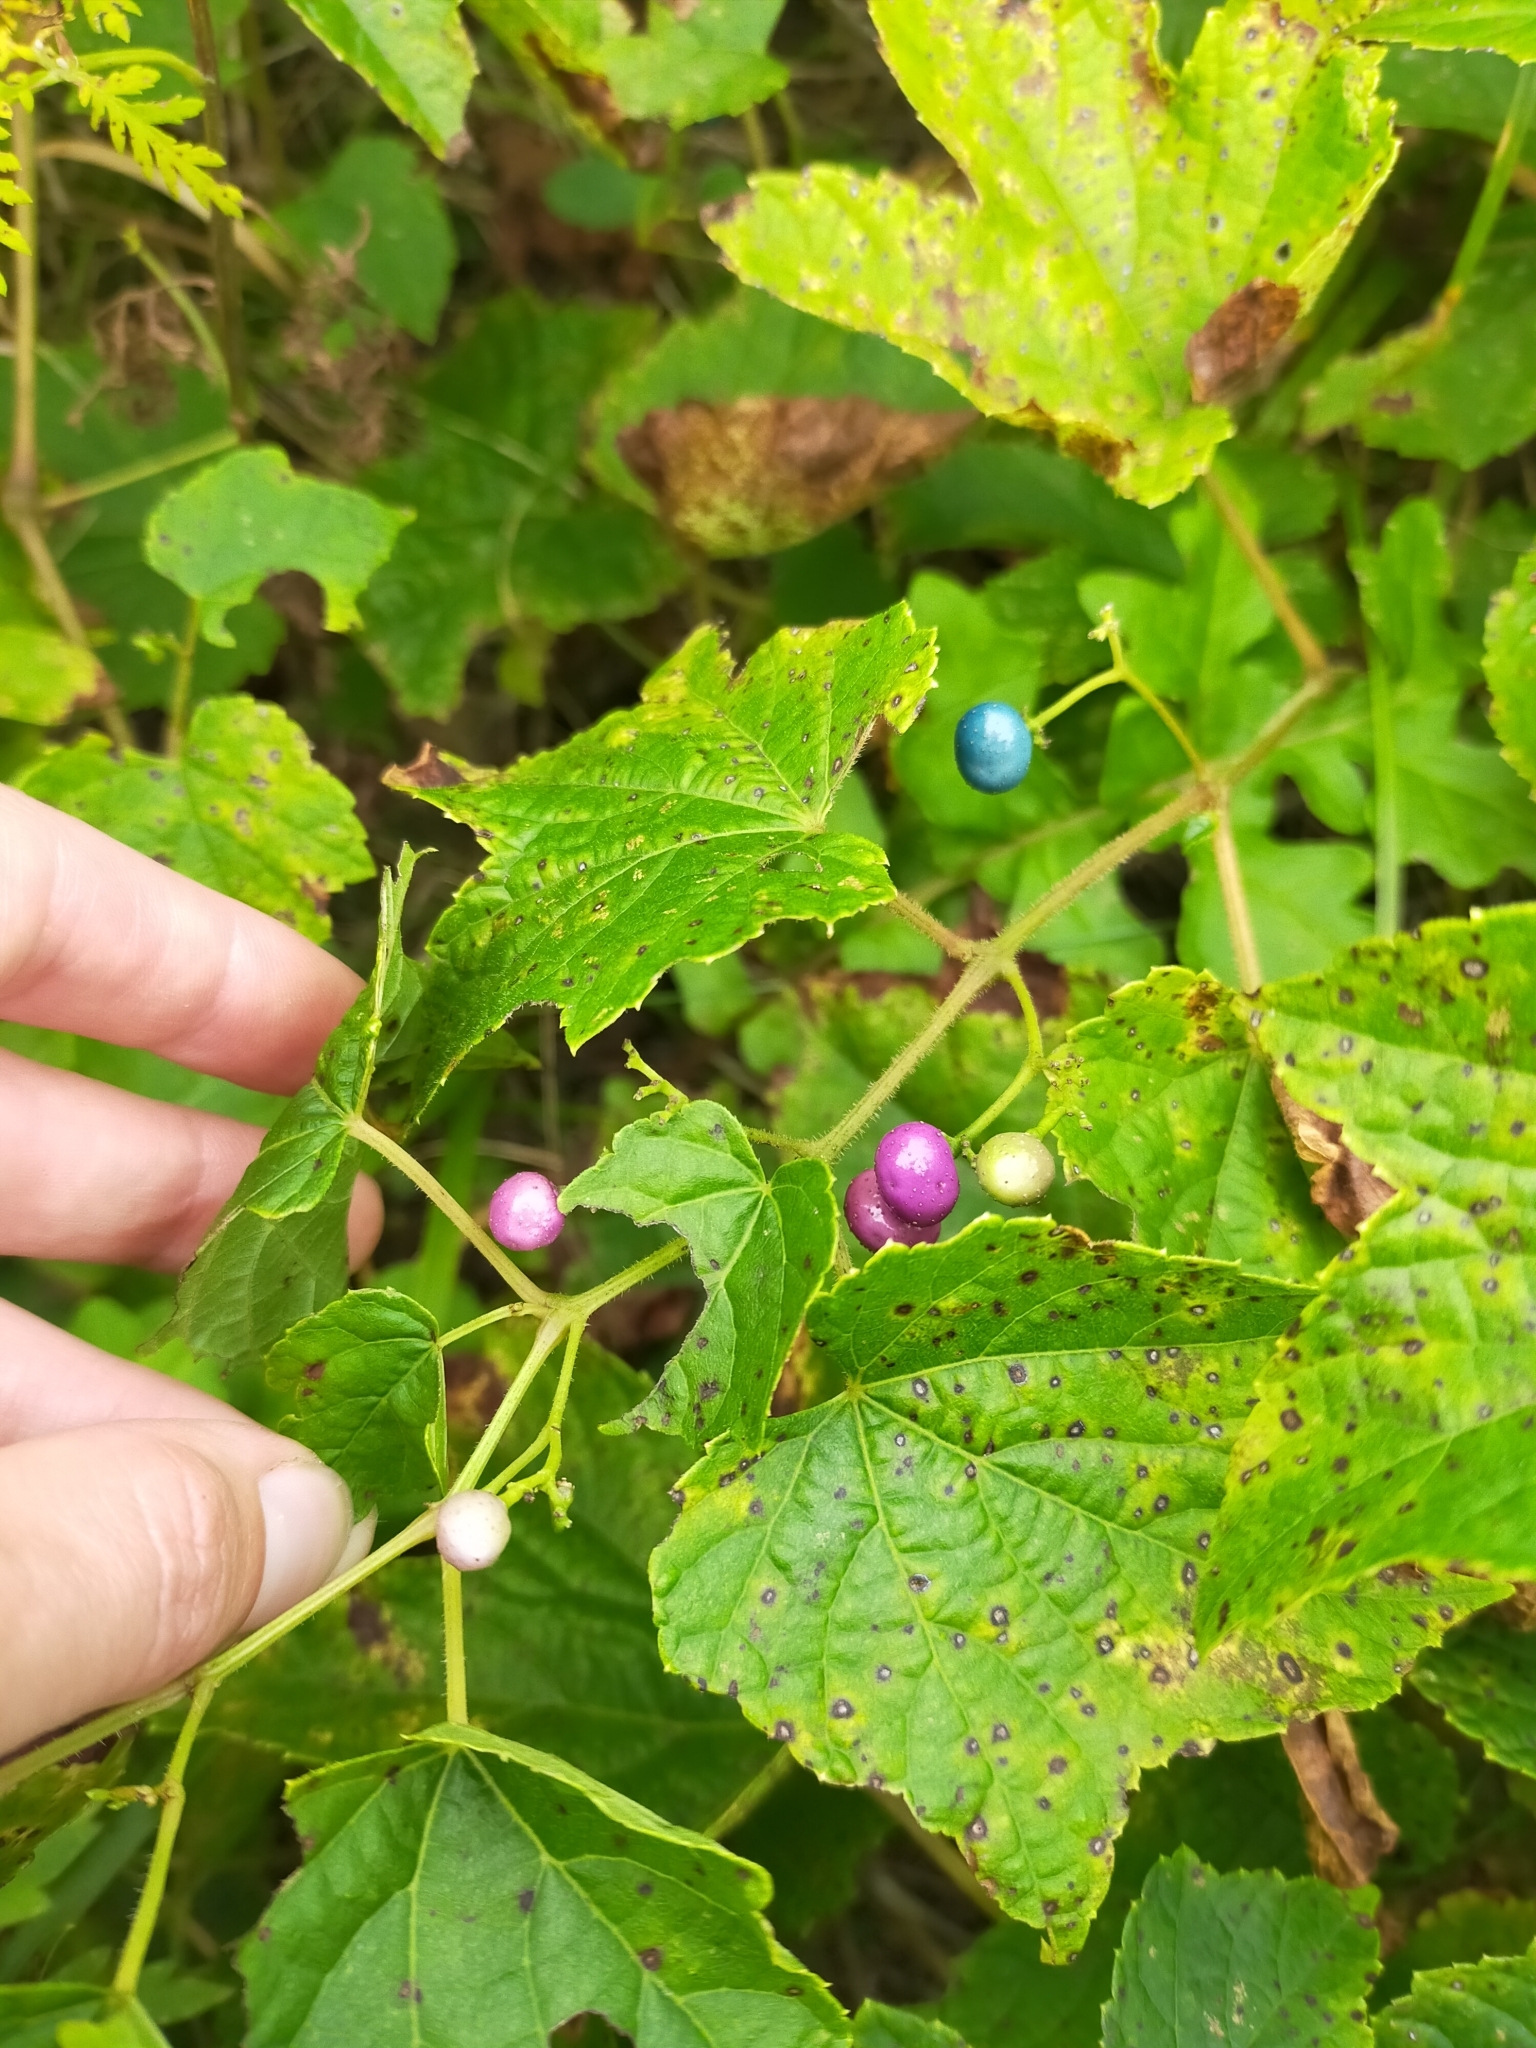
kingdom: Plantae
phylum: Tracheophyta
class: Magnoliopsida
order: Vitales
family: Vitaceae
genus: Ampelopsis
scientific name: Ampelopsis glandulosa
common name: Amur peppervine
